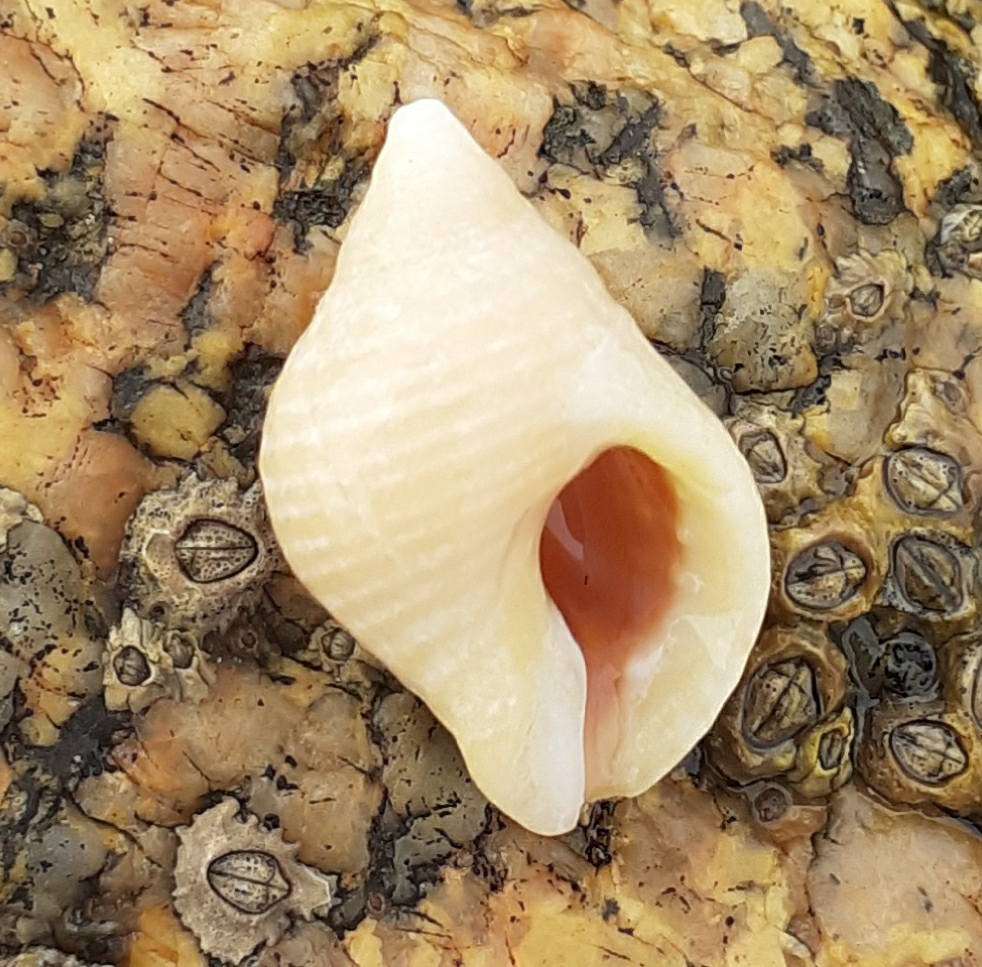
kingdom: Animalia
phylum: Mollusca
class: Gastropoda
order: Neogastropoda
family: Muricidae
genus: Nucella
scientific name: Nucella lapillus
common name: Dog whelk
